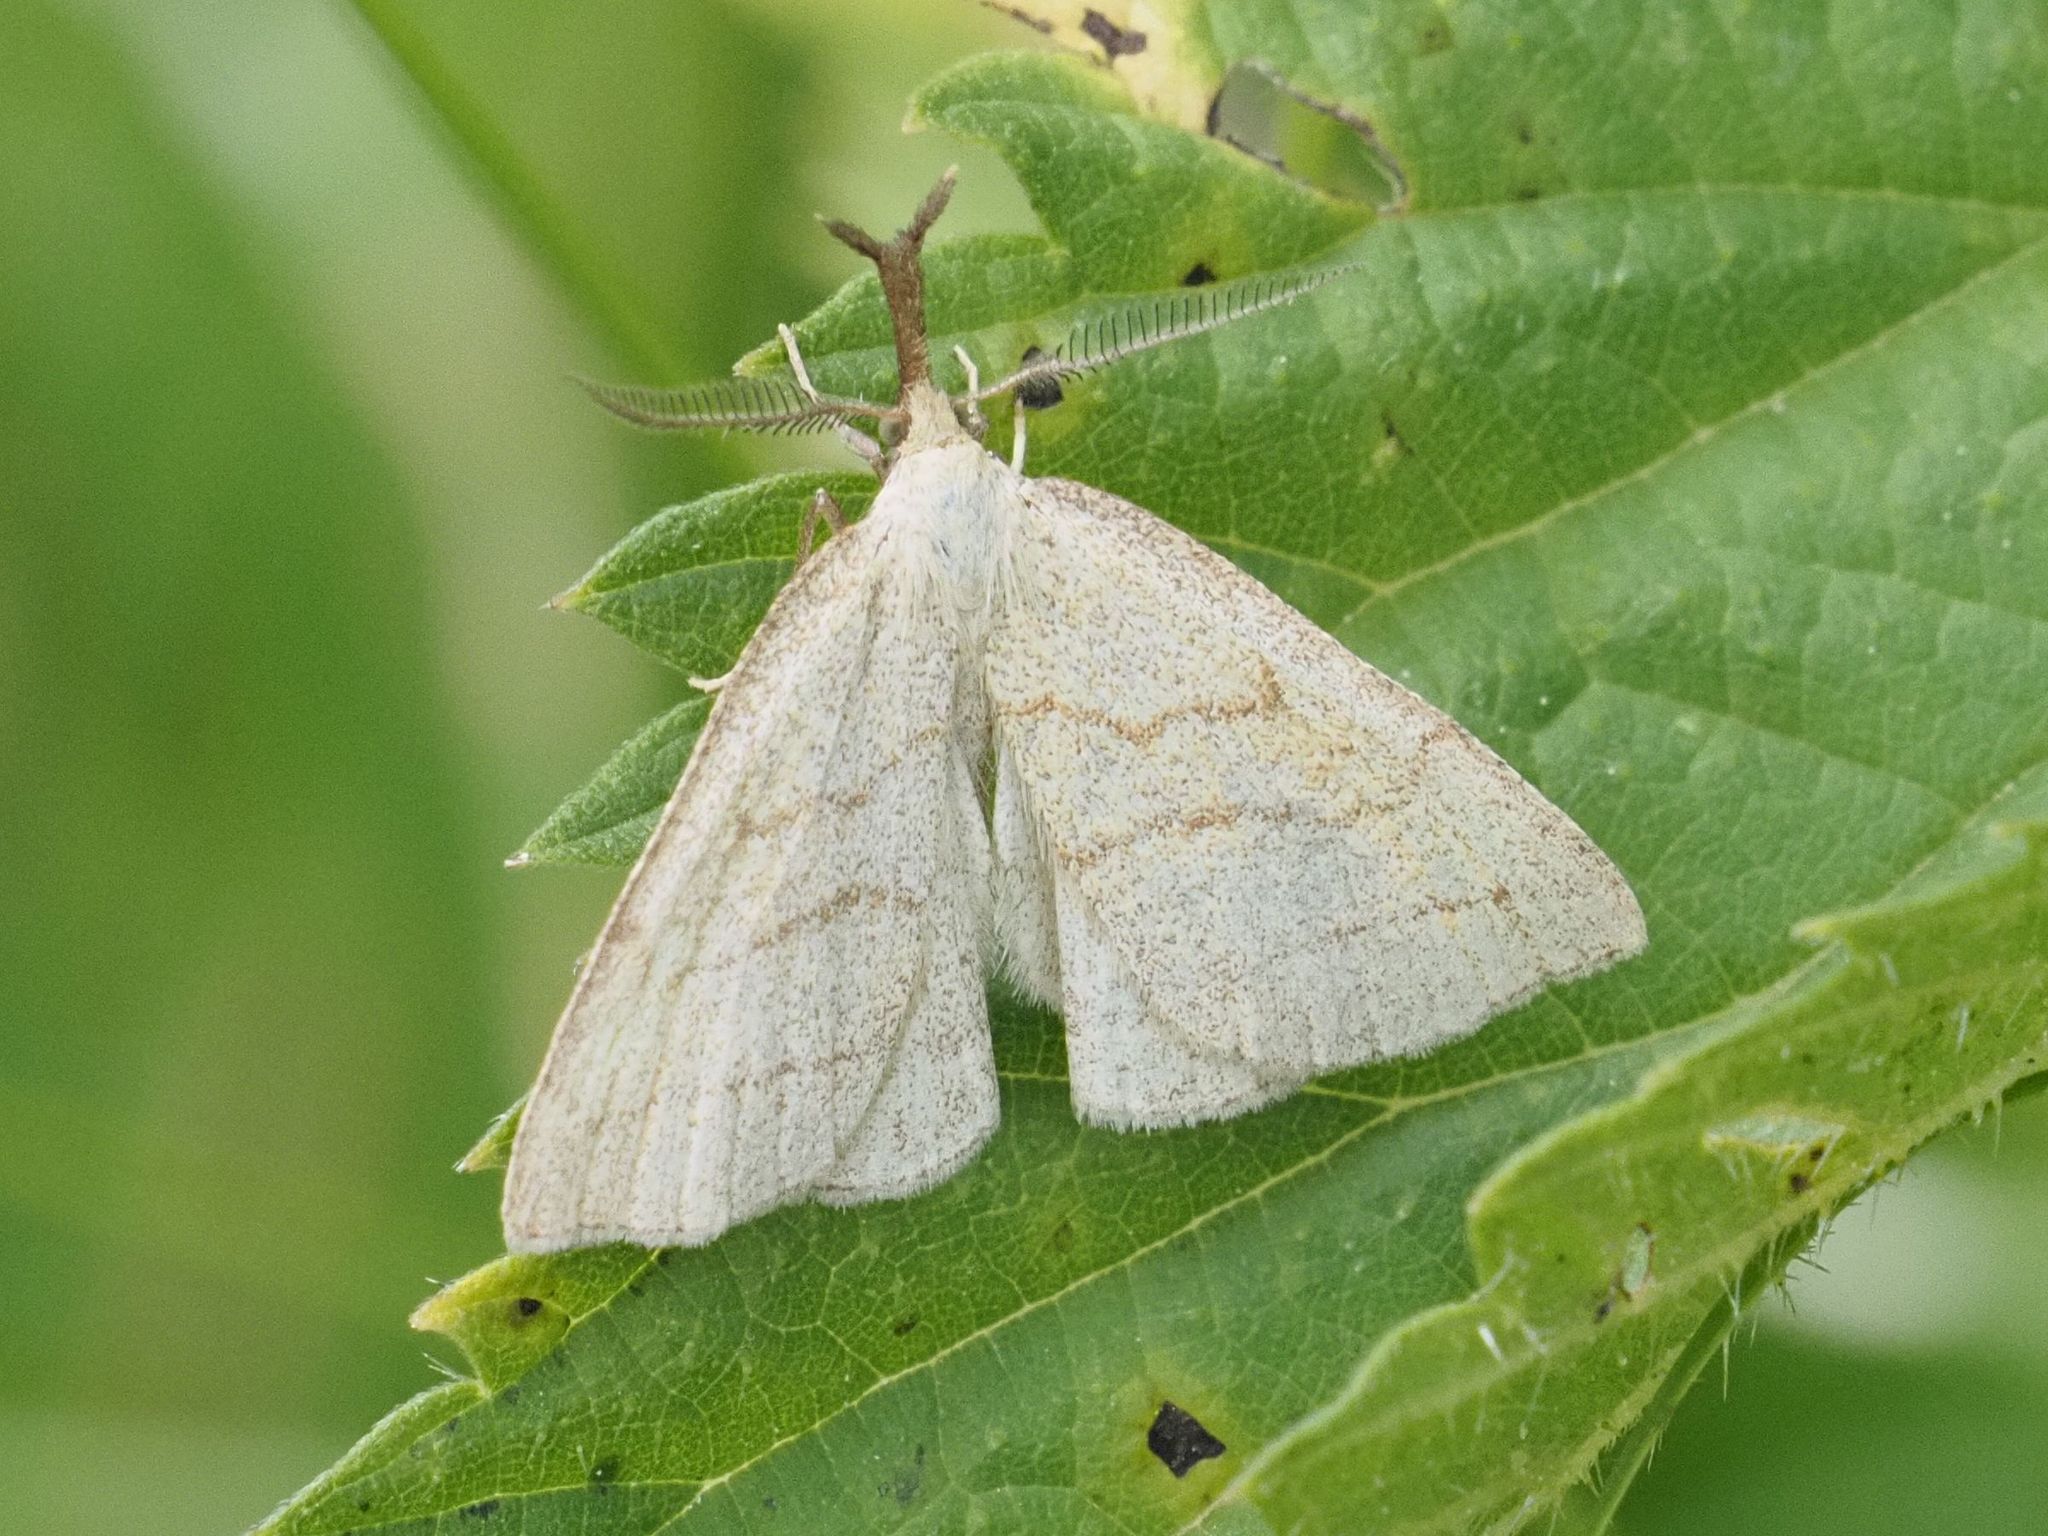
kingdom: Animalia
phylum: Arthropoda
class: Insecta
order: Lepidoptera
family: Erebidae
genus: Polypogon
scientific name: Polypogon tentacularia
